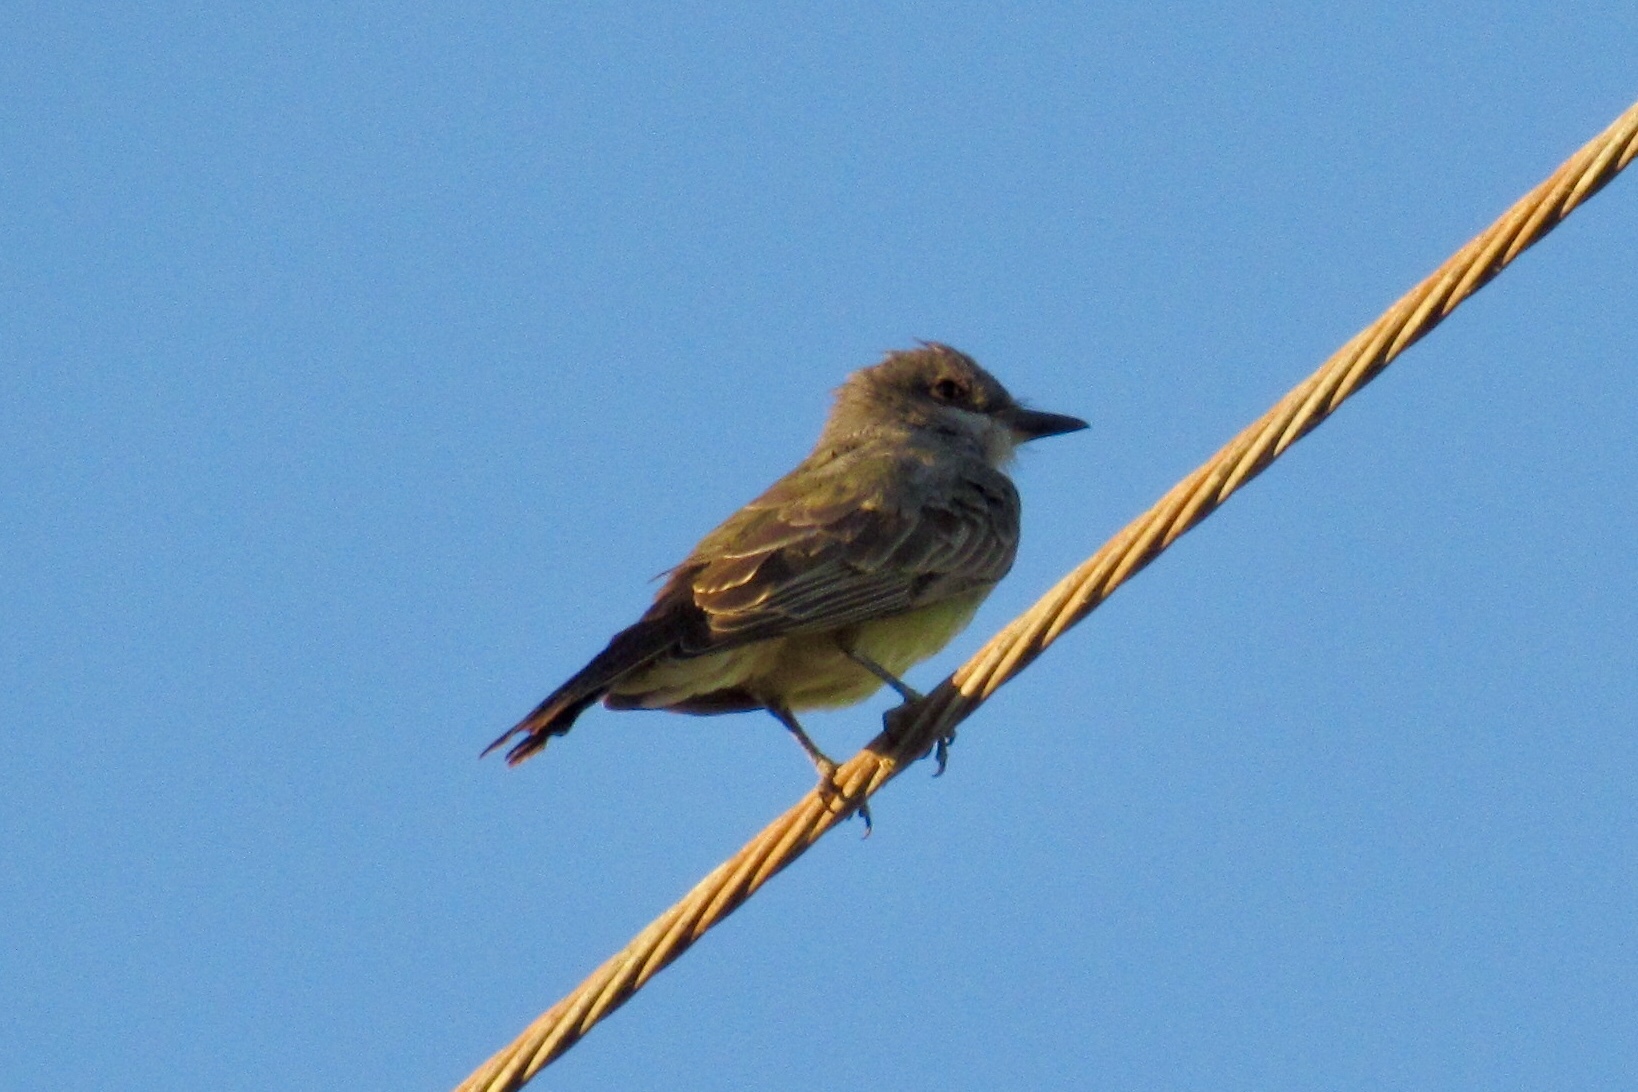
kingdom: Animalia
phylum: Chordata
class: Aves
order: Passeriformes
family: Tyrannidae
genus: Tyrannus
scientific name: Tyrannus vociferans
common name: Cassin's kingbird
